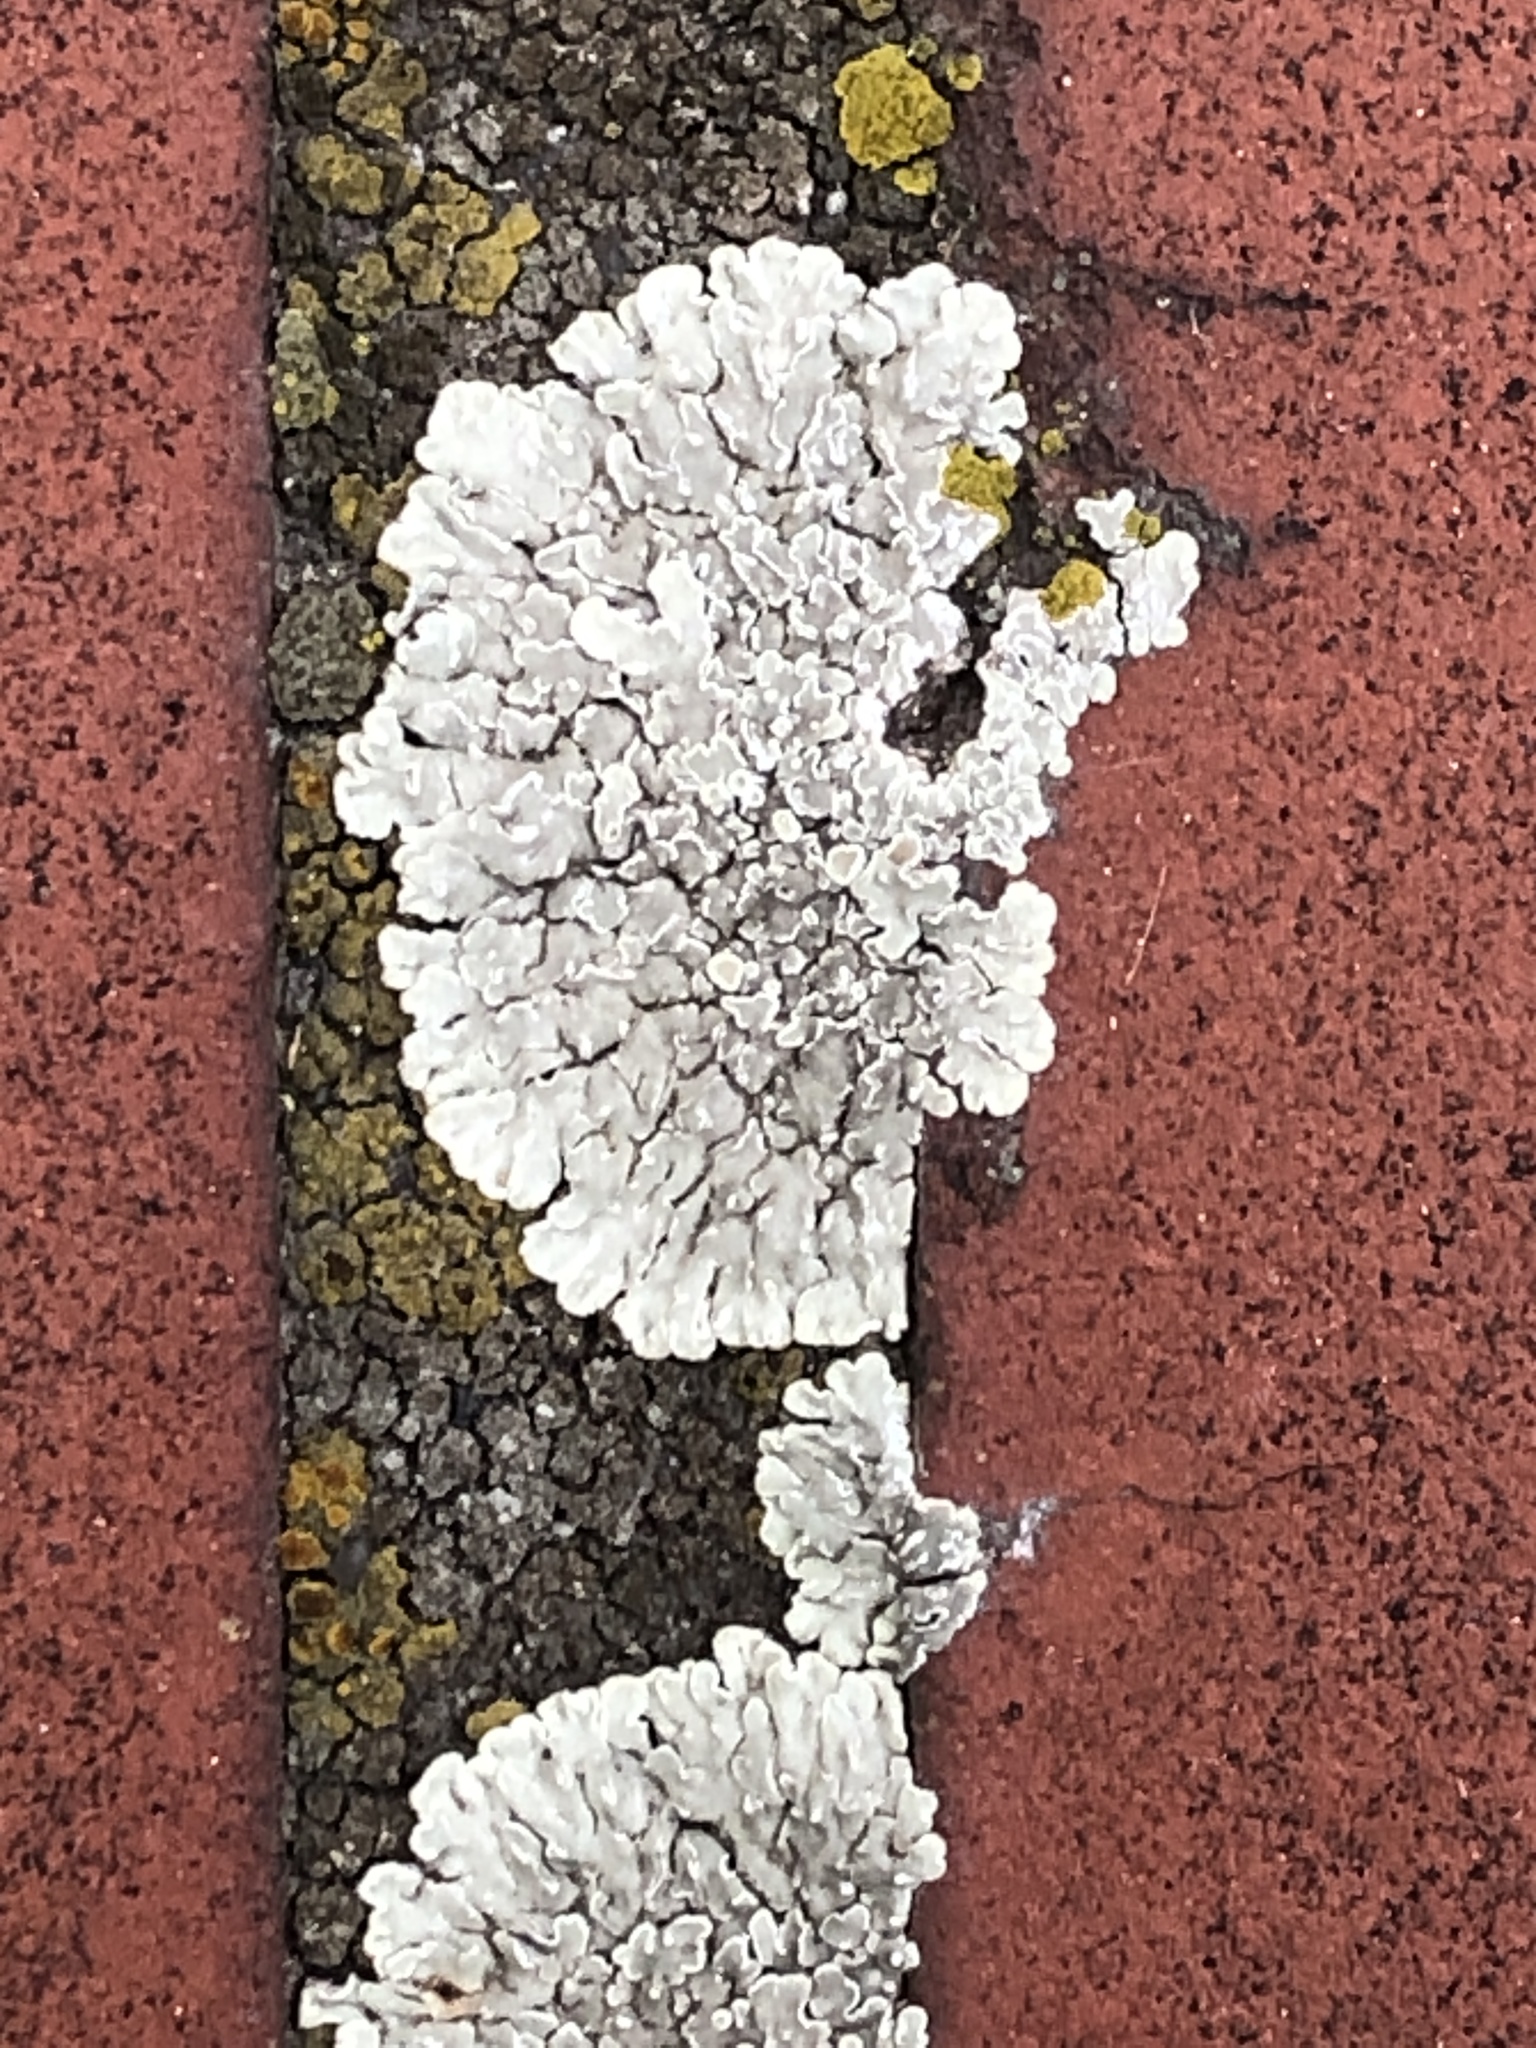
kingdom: Fungi
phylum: Ascomycota
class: Lecanoromycetes
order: Lecanorales
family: Lecanoraceae
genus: Protoparmeliopsis
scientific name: Protoparmeliopsis muralis
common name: Stonewall rim lichen
